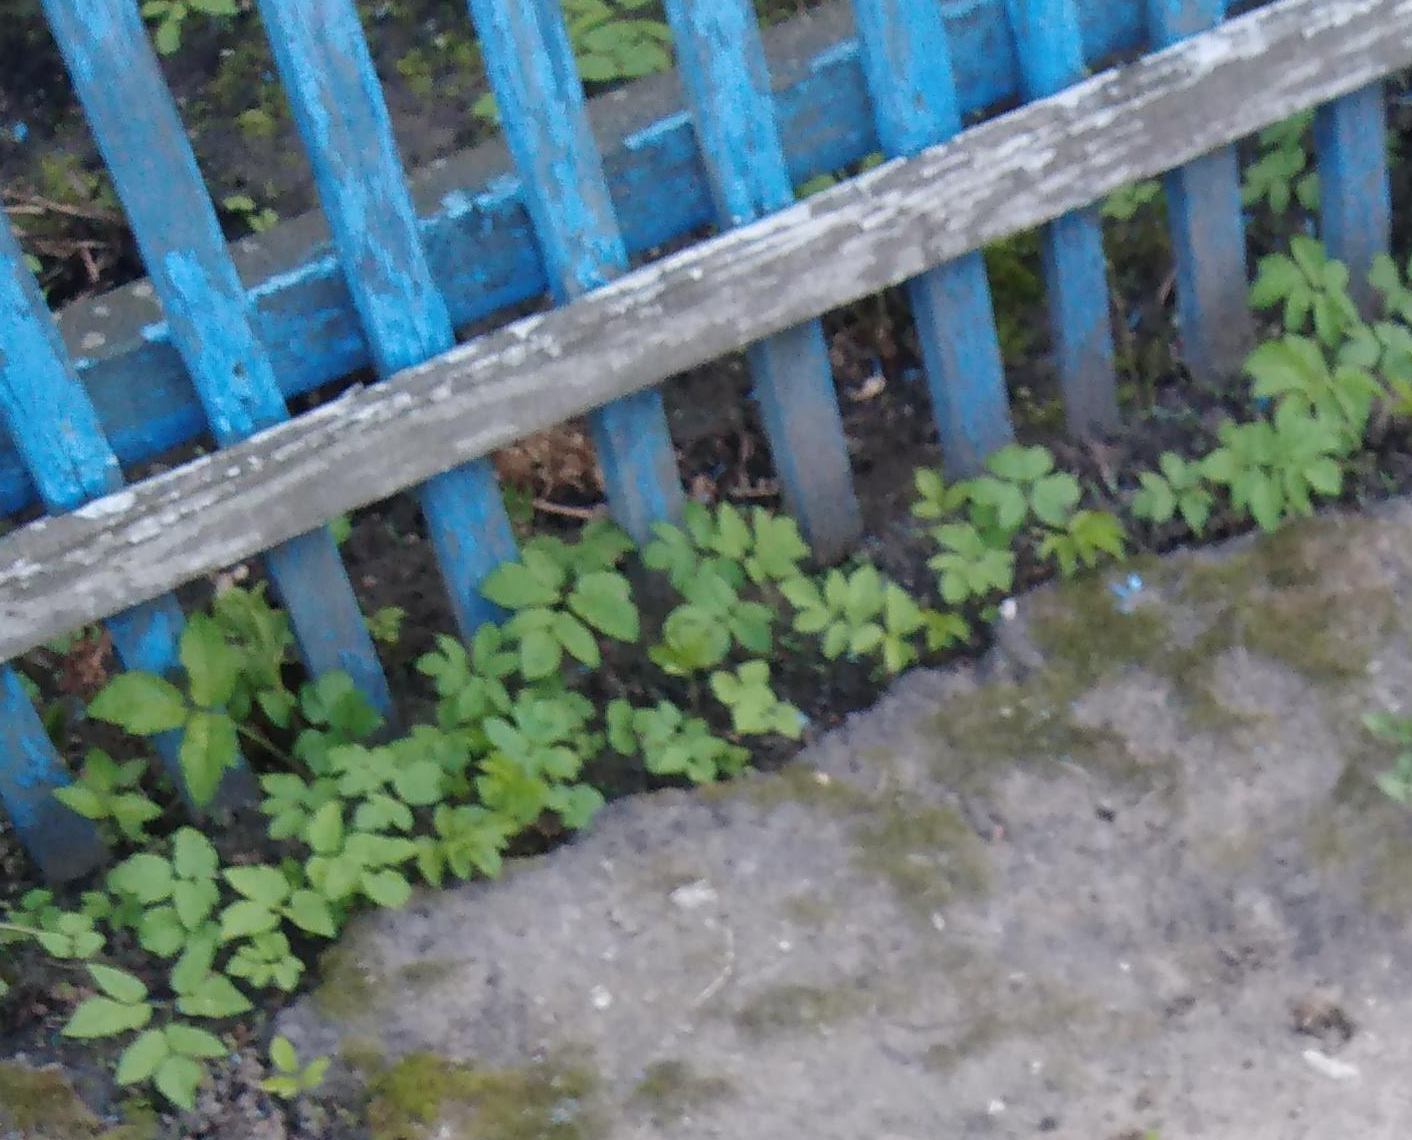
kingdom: Plantae
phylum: Tracheophyta
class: Magnoliopsida
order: Apiales
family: Apiaceae
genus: Aegopodium
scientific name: Aegopodium podagraria
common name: Ground-elder
